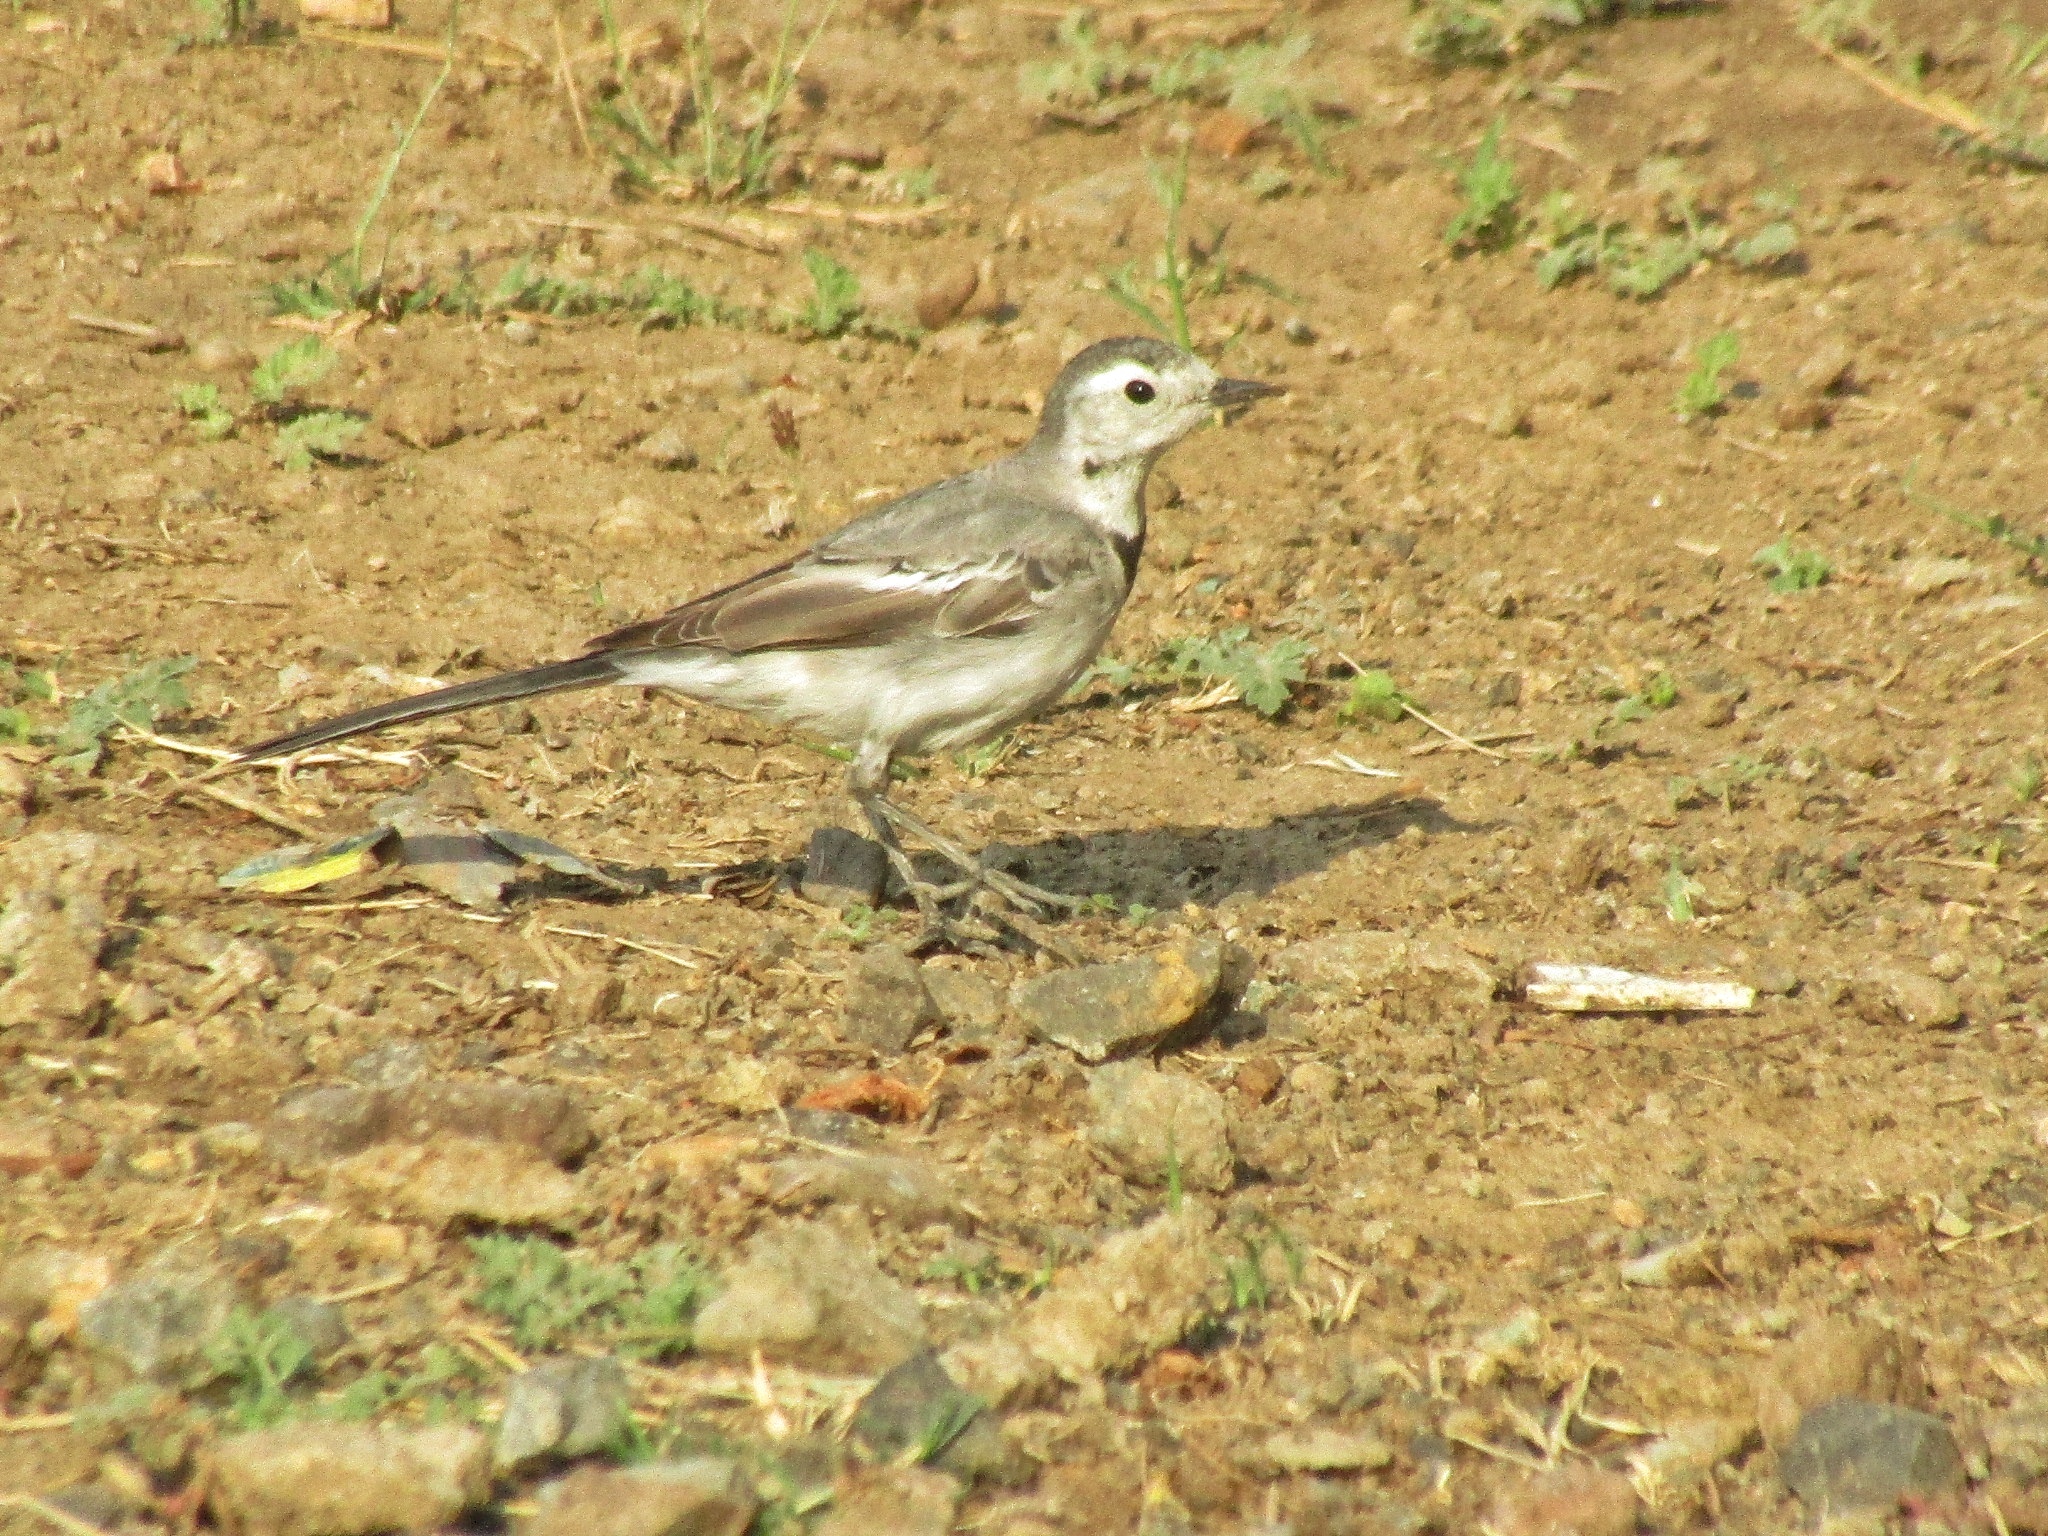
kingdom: Animalia
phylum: Chordata
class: Aves
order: Passeriformes
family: Motacillidae
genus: Motacilla
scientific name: Motacilla alba
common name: White wagtail
